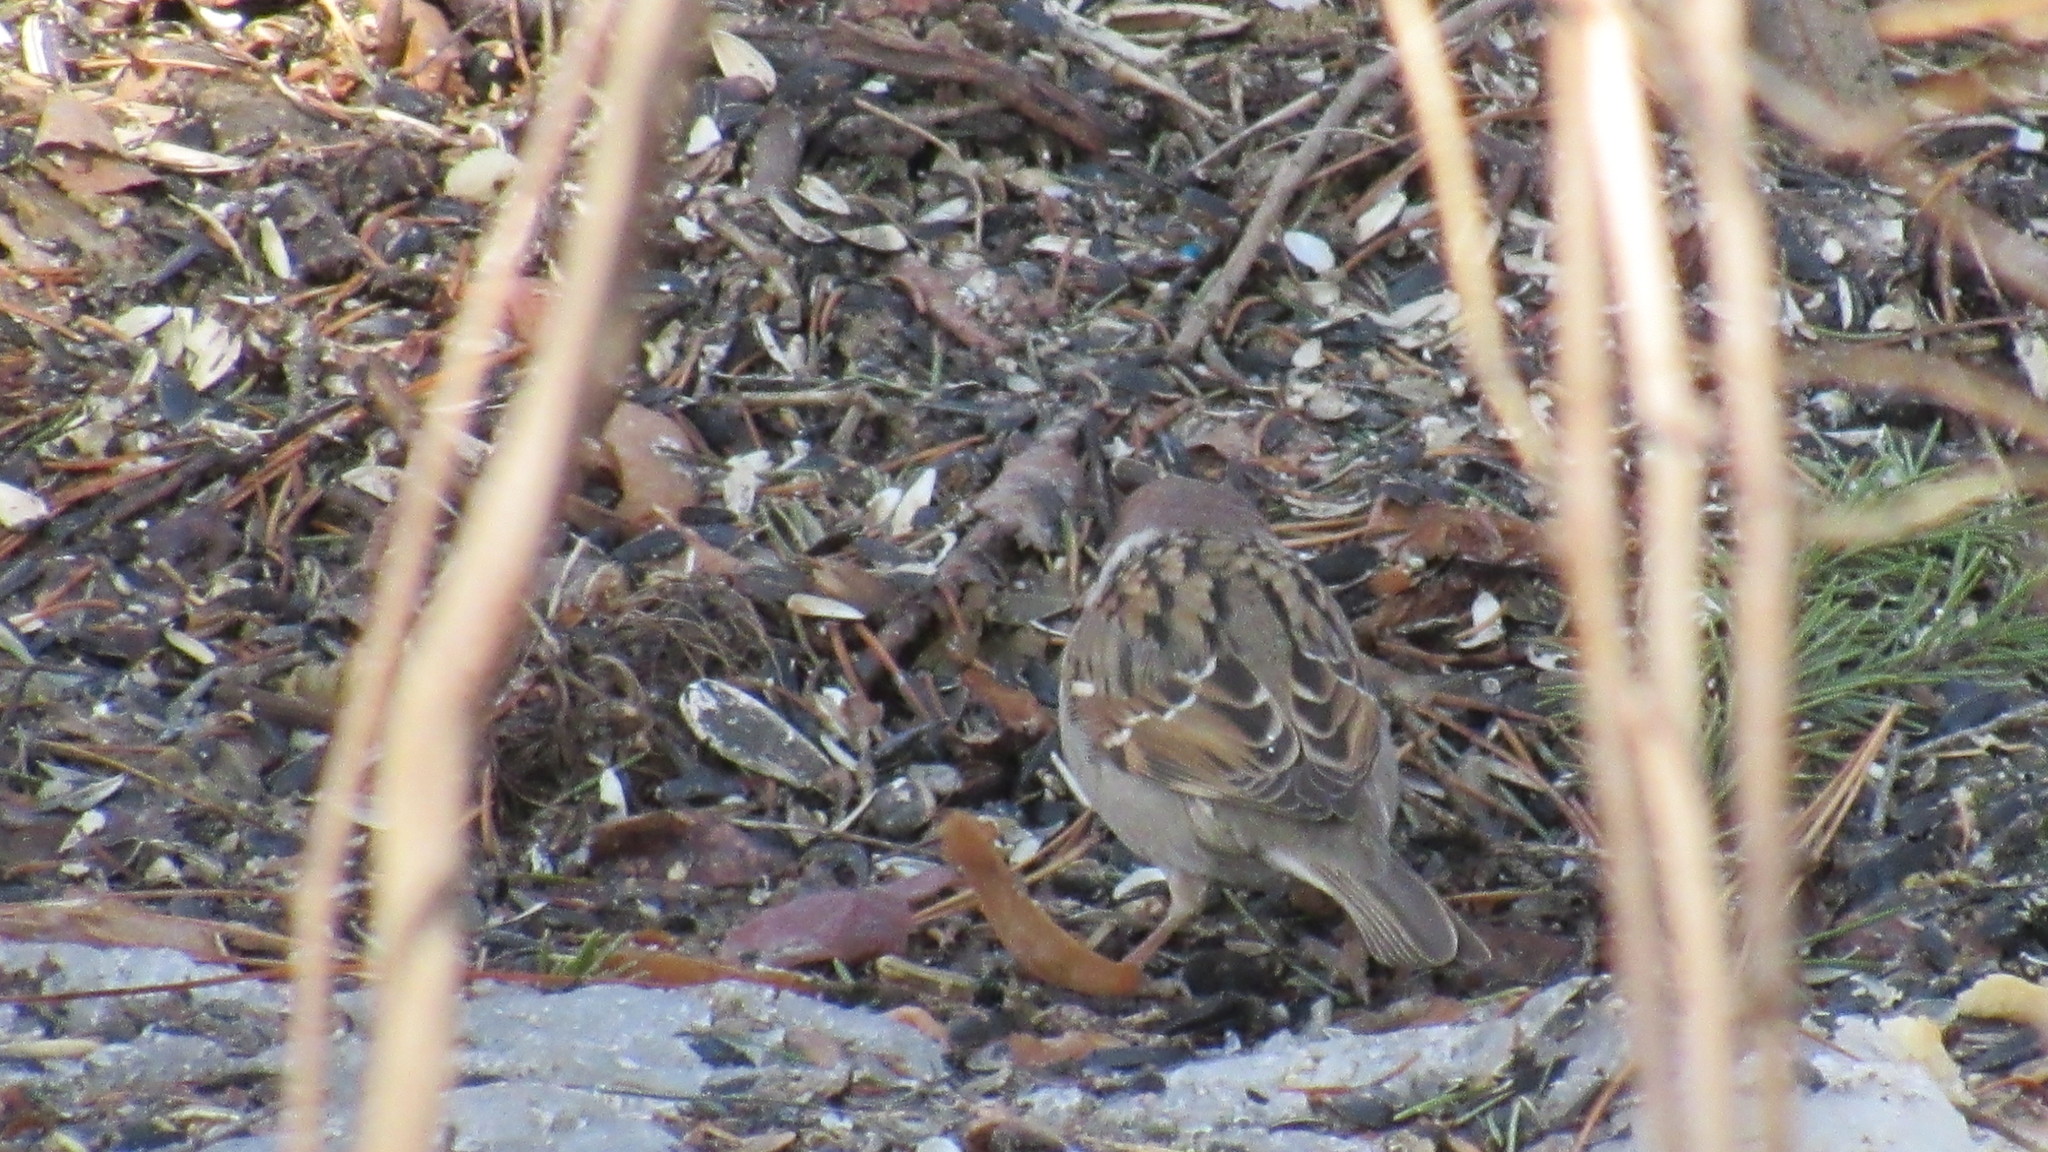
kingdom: Animalia
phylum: Chordata
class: Aves
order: Passeriformes
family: Passeridae
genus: Passer
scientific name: Passer montanus
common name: Eurasian tree sparrow
